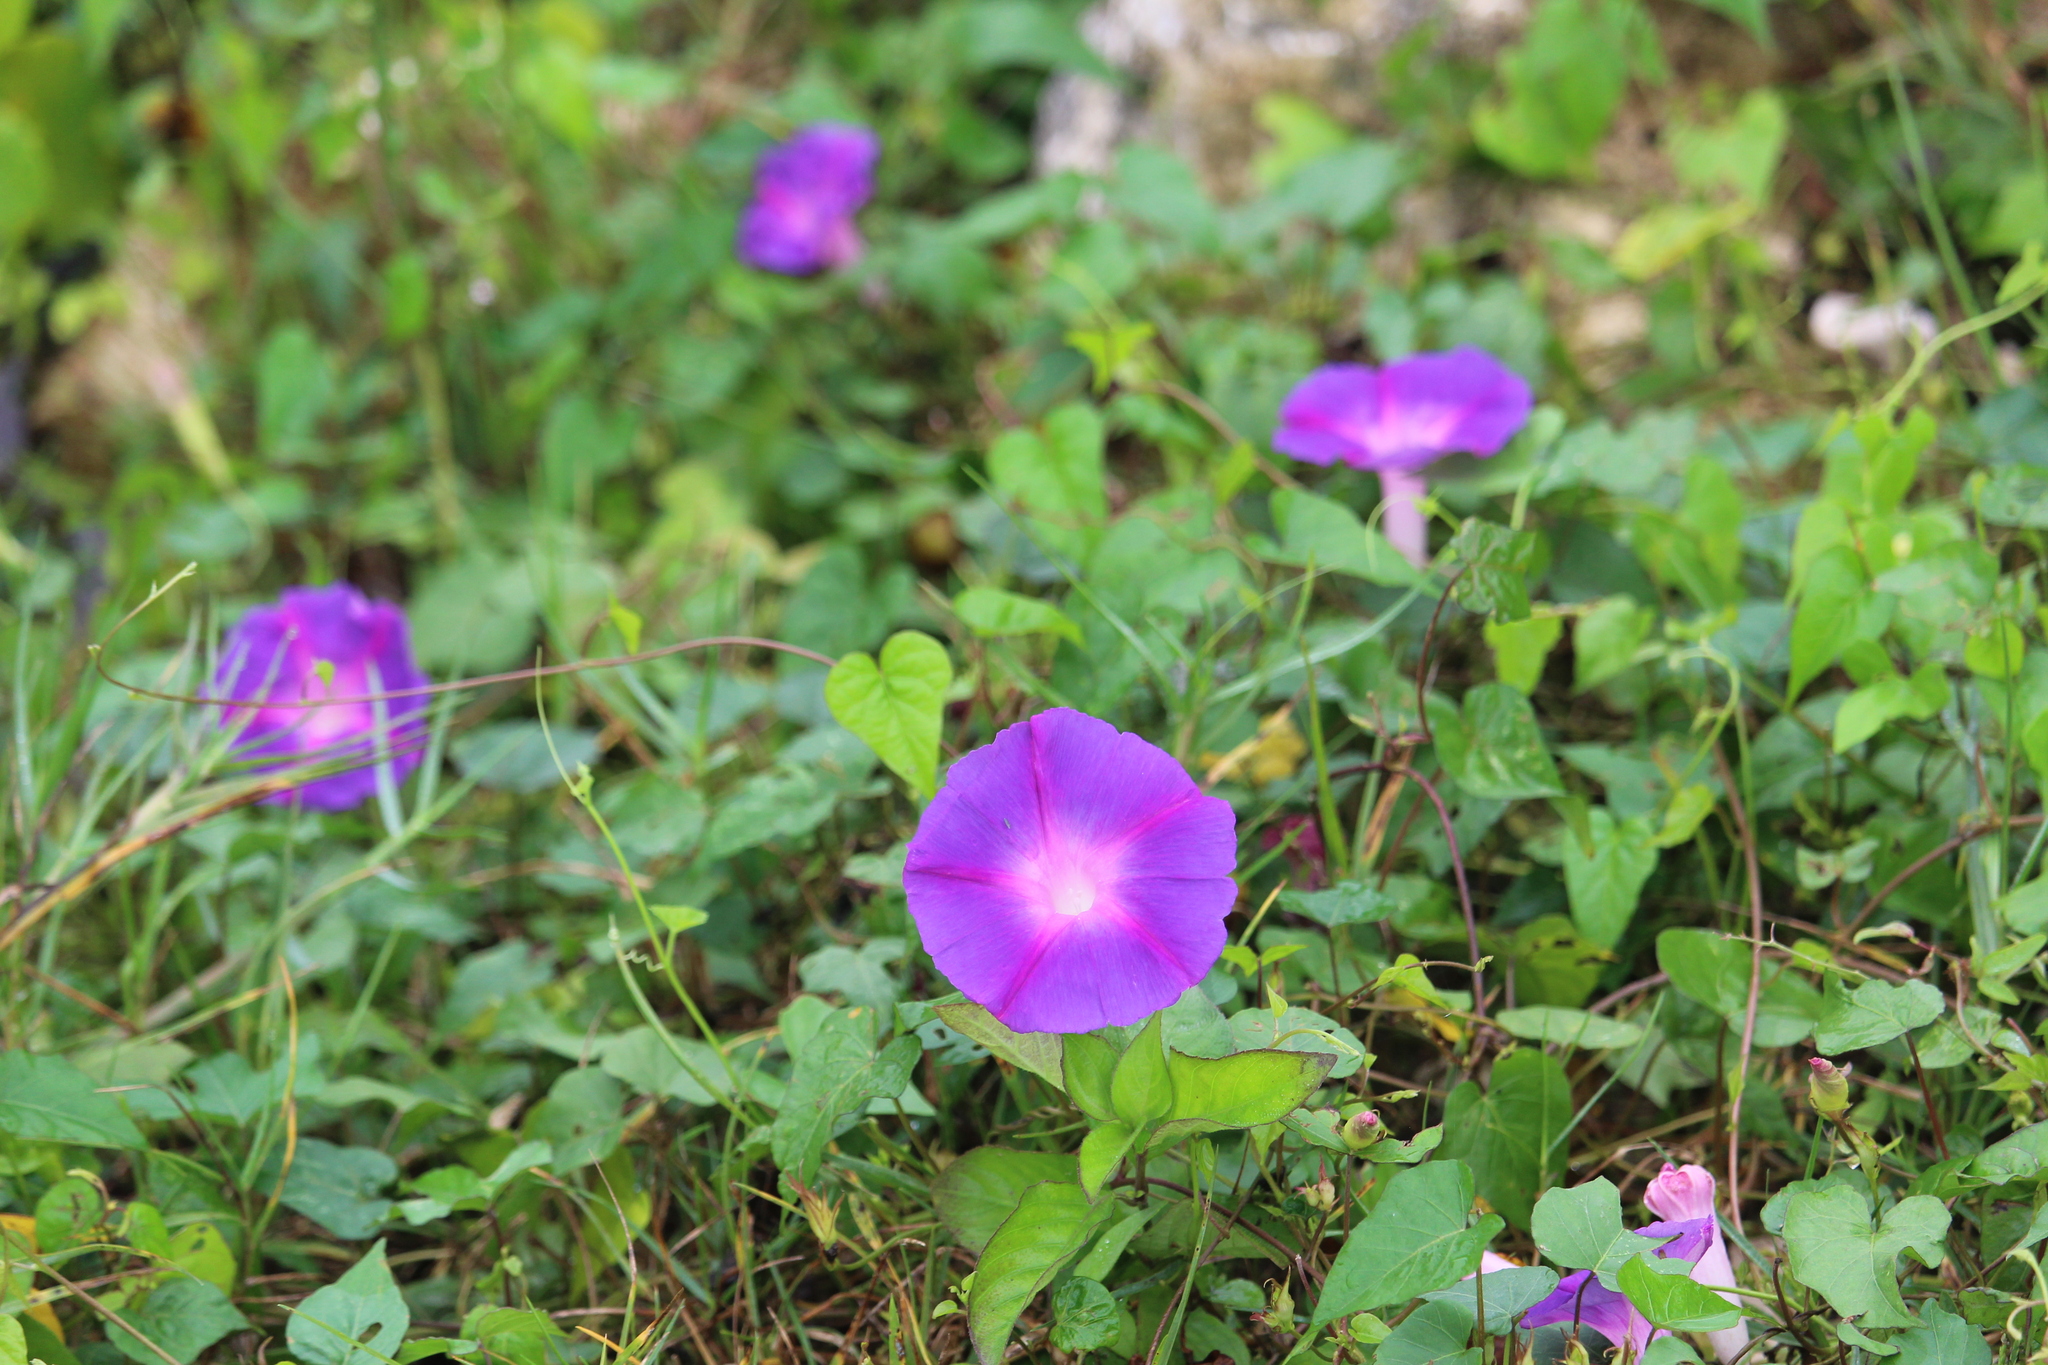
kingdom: Plantae
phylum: Tracheophyta
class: Magnoliopsida
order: Solanales
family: Convolvulaceae
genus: Ipomoea
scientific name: Ipomoea indica
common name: Blue dawnflower
